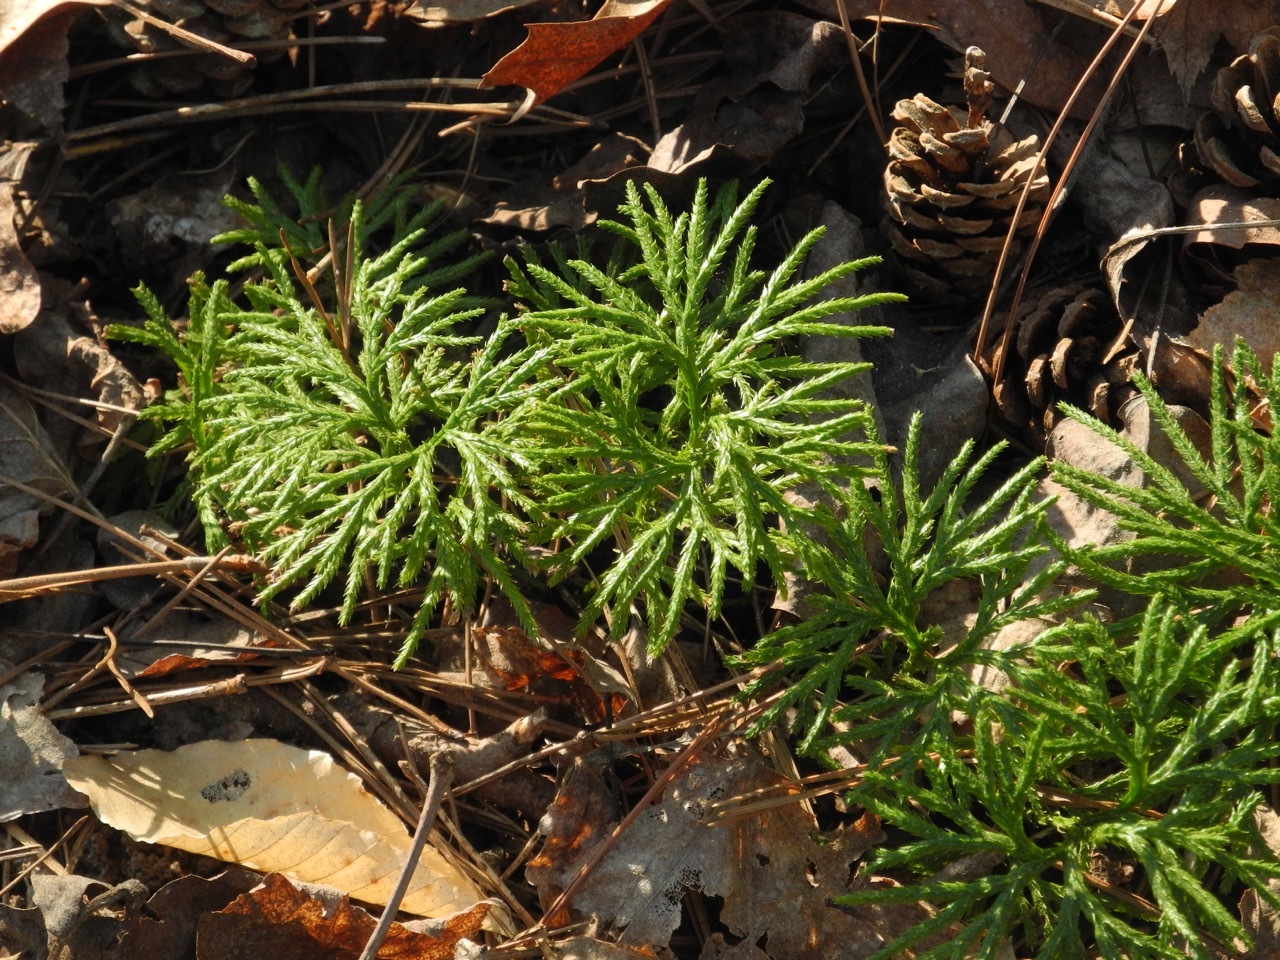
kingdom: Plantae
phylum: Tracheophyta
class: Lycopodiopsida
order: Lycopodiales
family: Lycopodiaceae
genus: Diphasiastrum
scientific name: Diphasiastrum digitatum
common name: Southern running-pine
